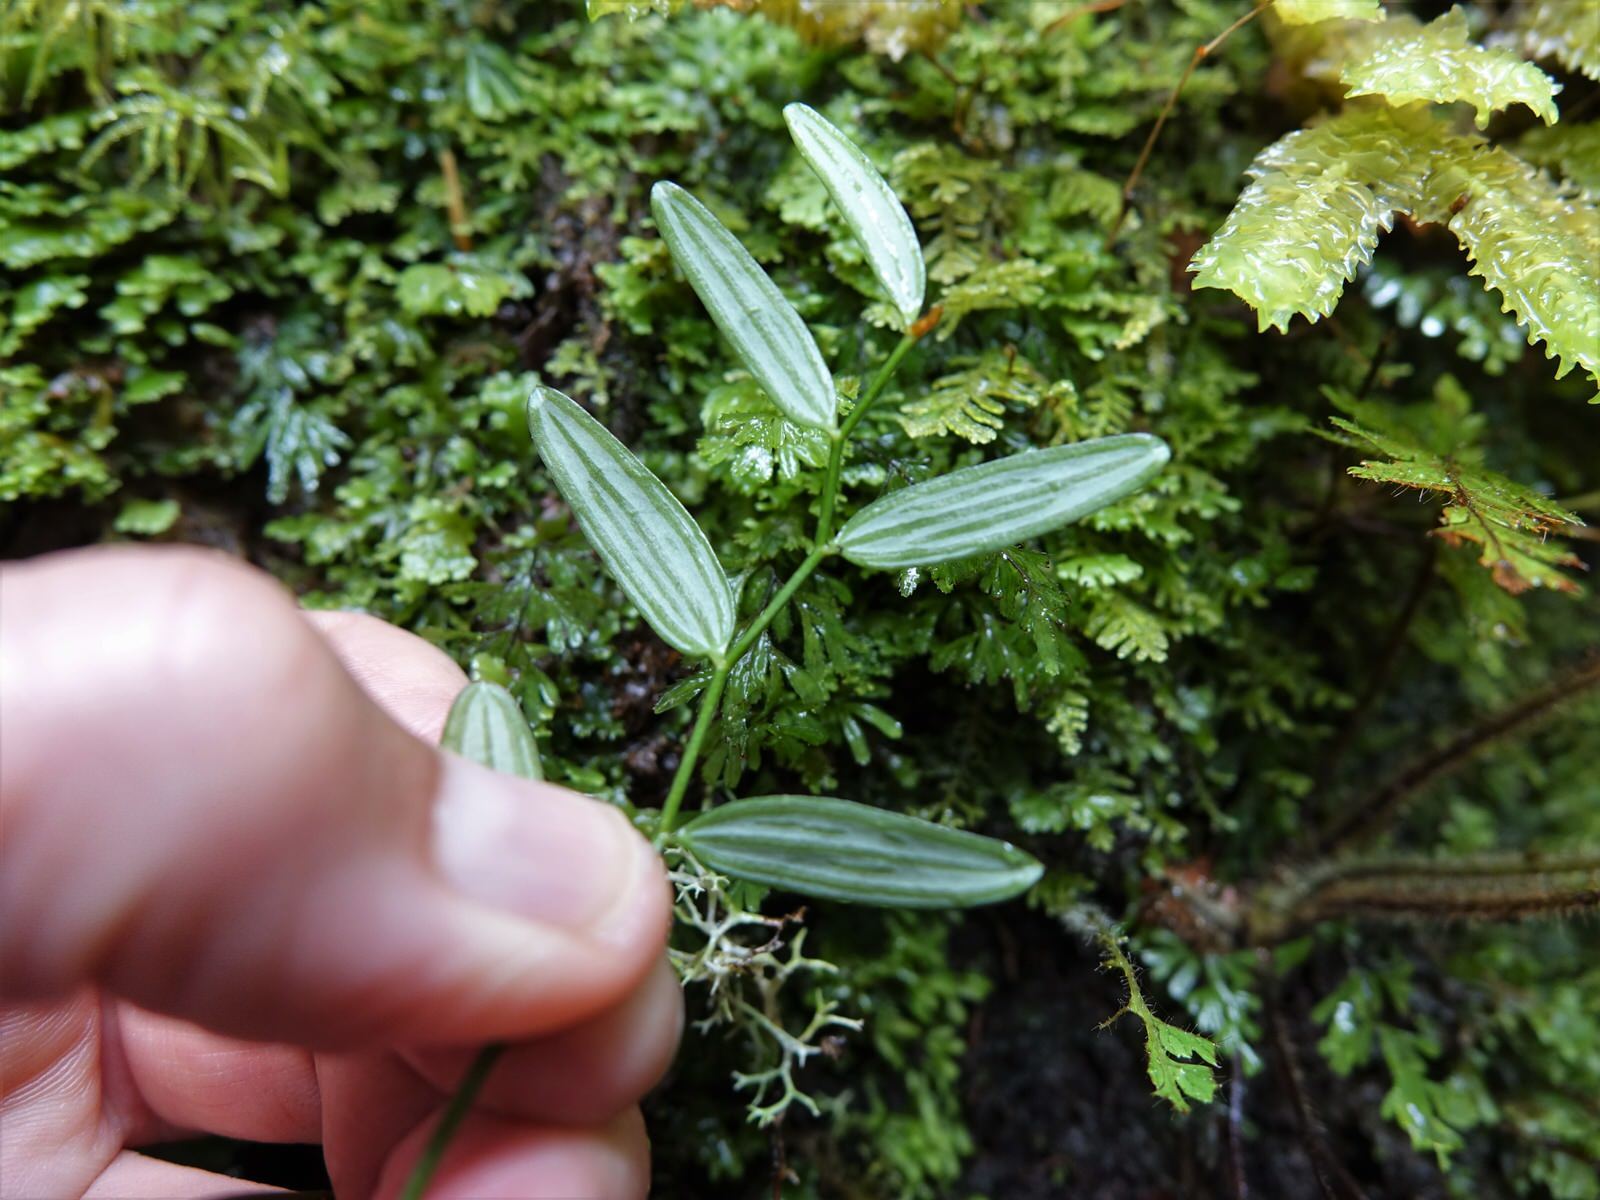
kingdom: Plantae
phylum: Tracheophyta
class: Liliopsida
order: Liliales
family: Alstroemeriaceae
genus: Luzuriaga
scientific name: Luzuriaga parviflora
